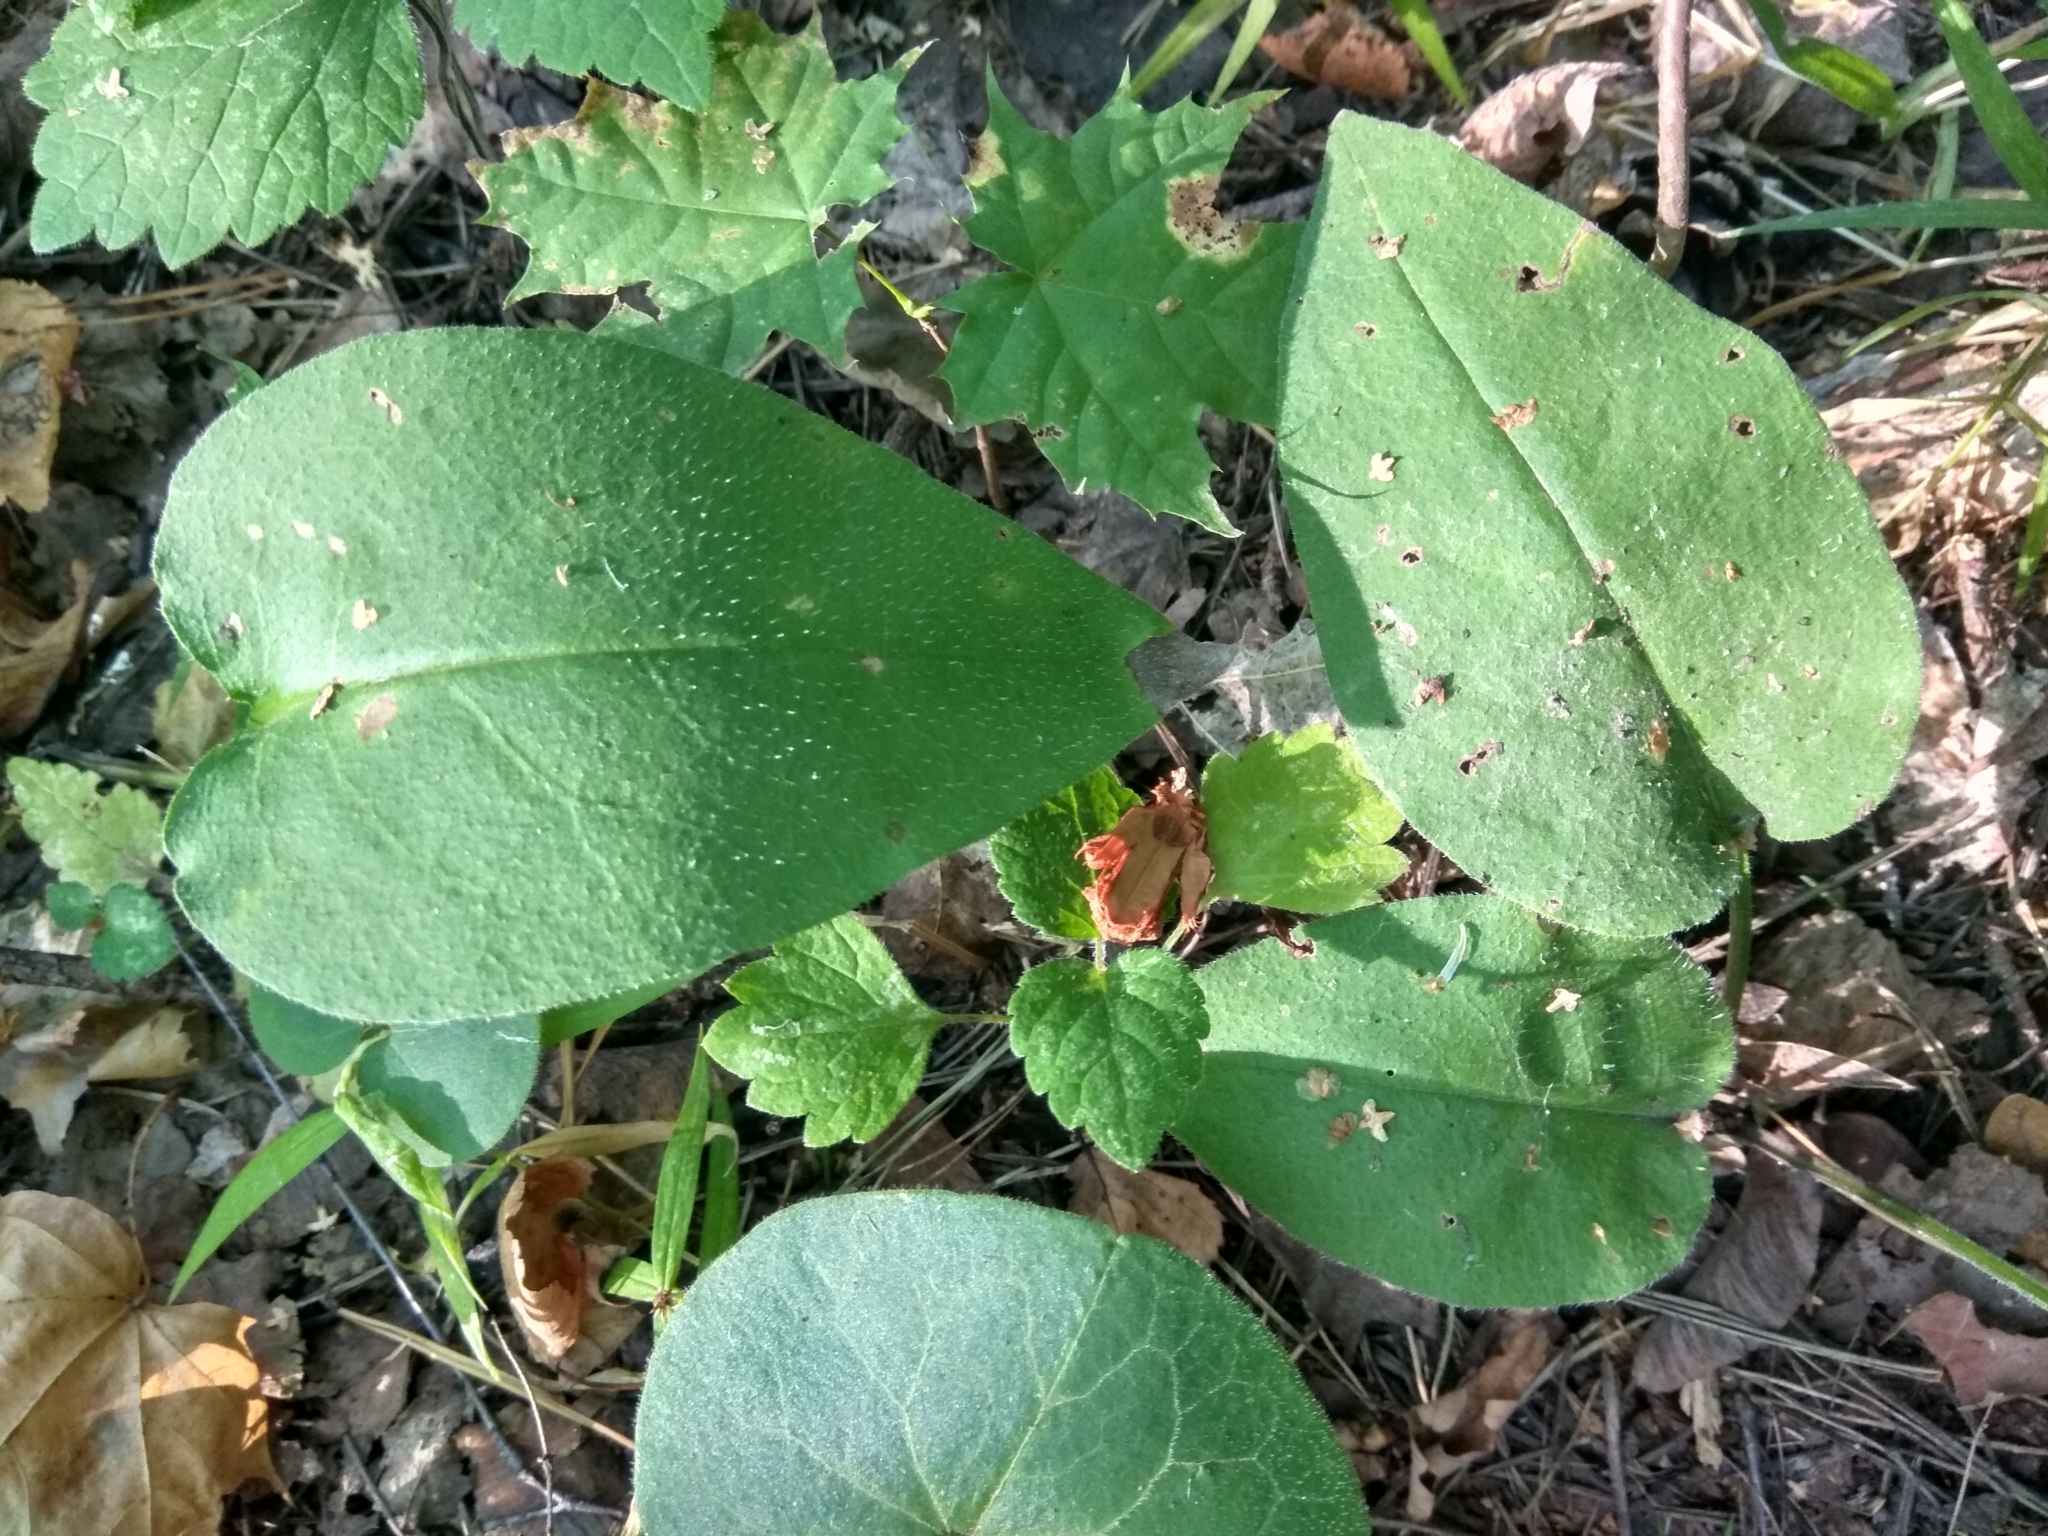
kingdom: Plantae
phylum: Tracheophyta
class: Magnoliopsida
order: Boraginales
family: Boraginaceae
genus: Pulmonaria
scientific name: Pulmonaria obscura
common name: Suffolk lungwort
